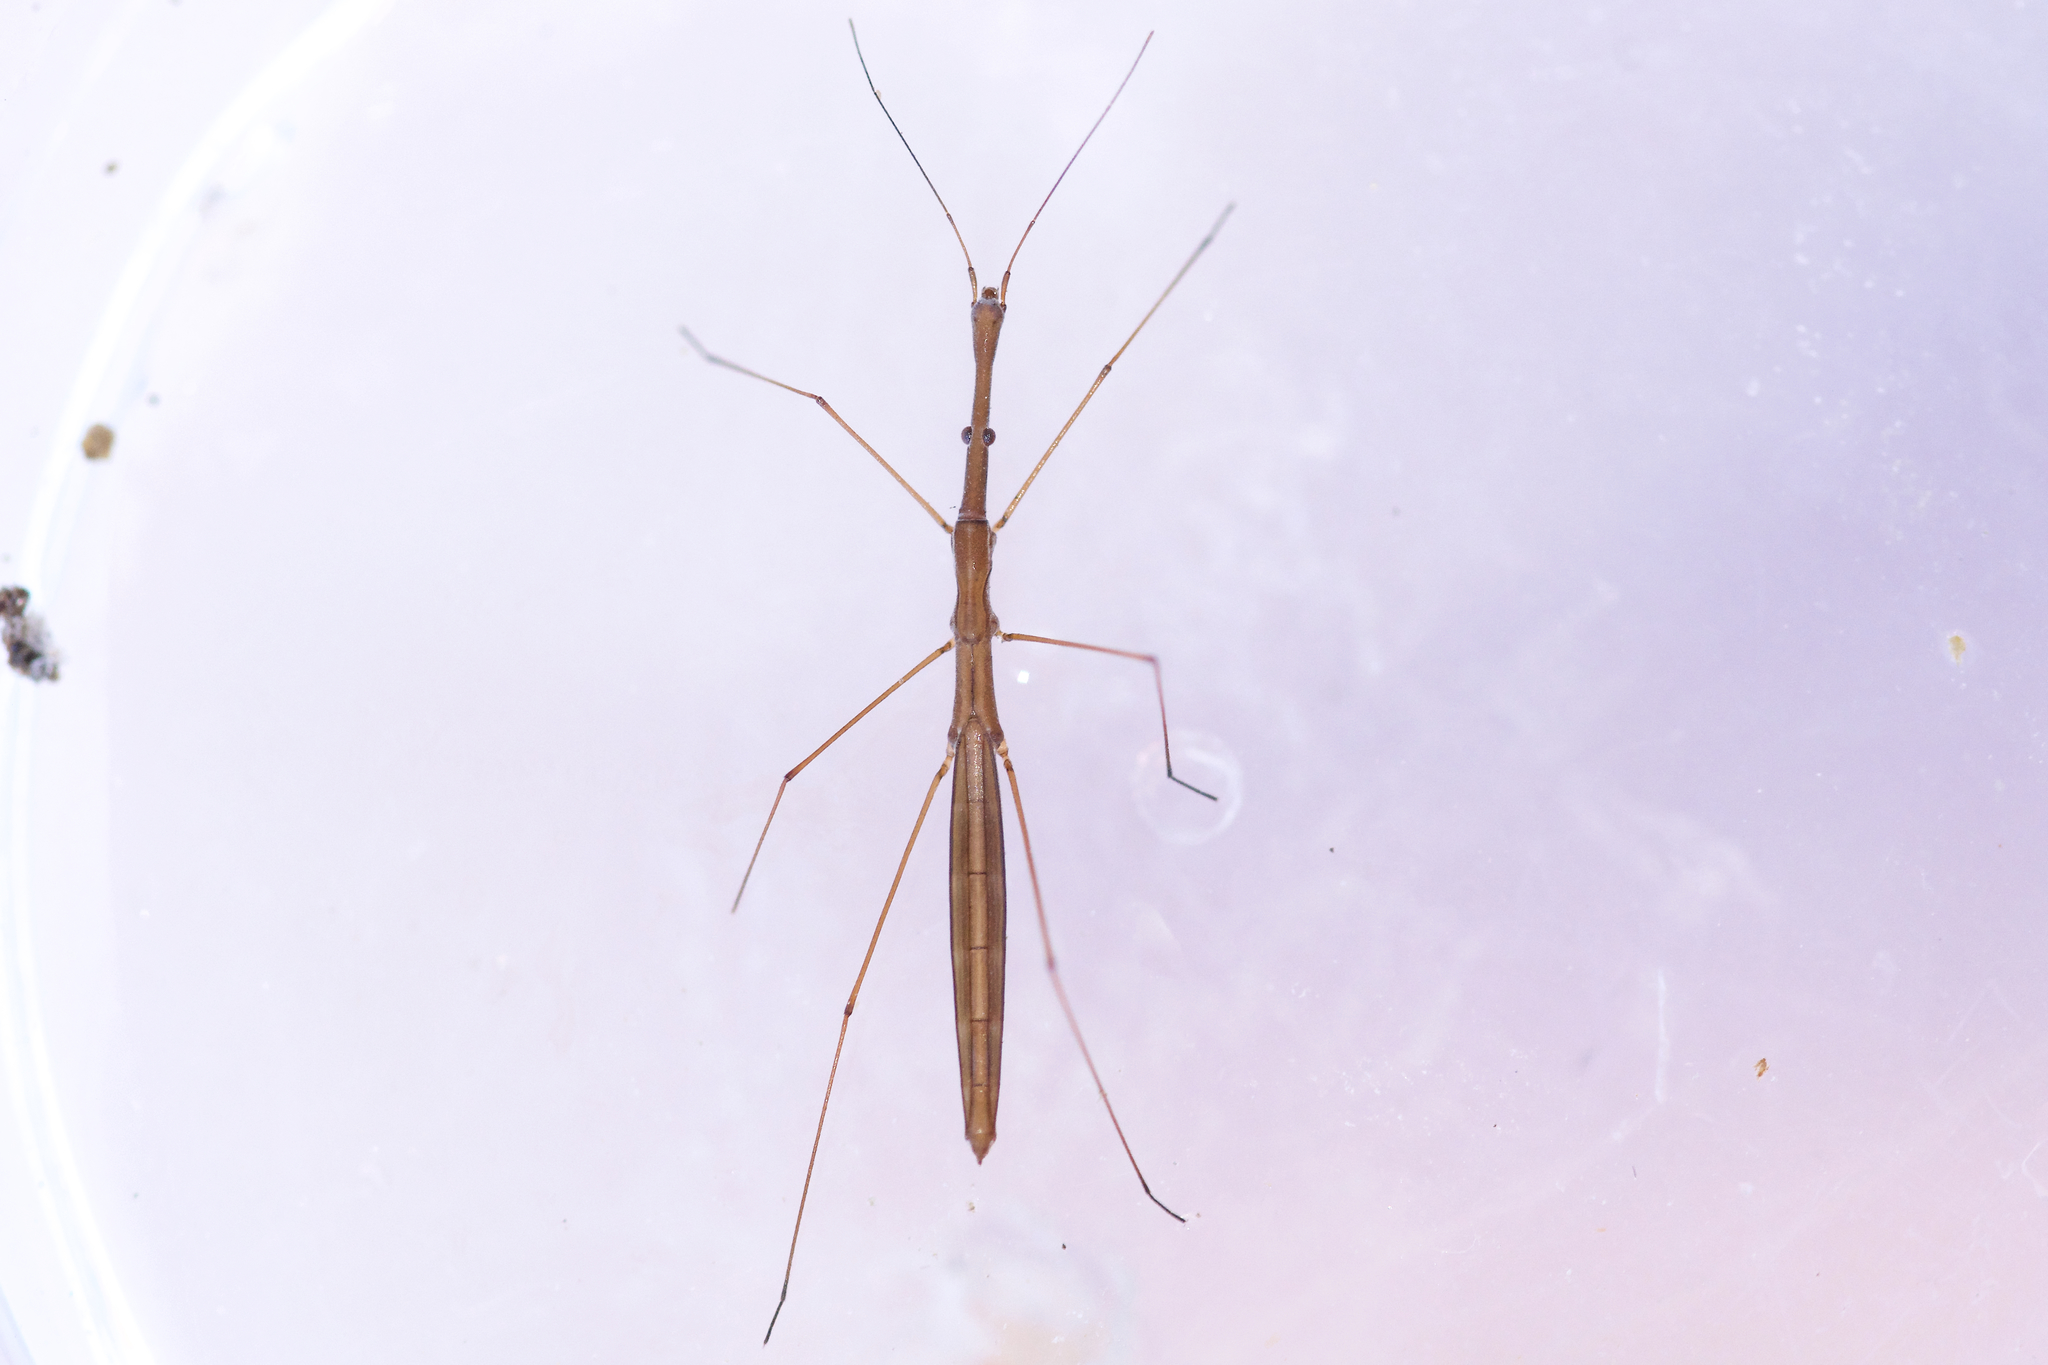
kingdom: Animalia
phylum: Arthropoda
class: Insecta
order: Hemiptera
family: Hydrometridae
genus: Hydrometra
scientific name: Hydrometra martini
